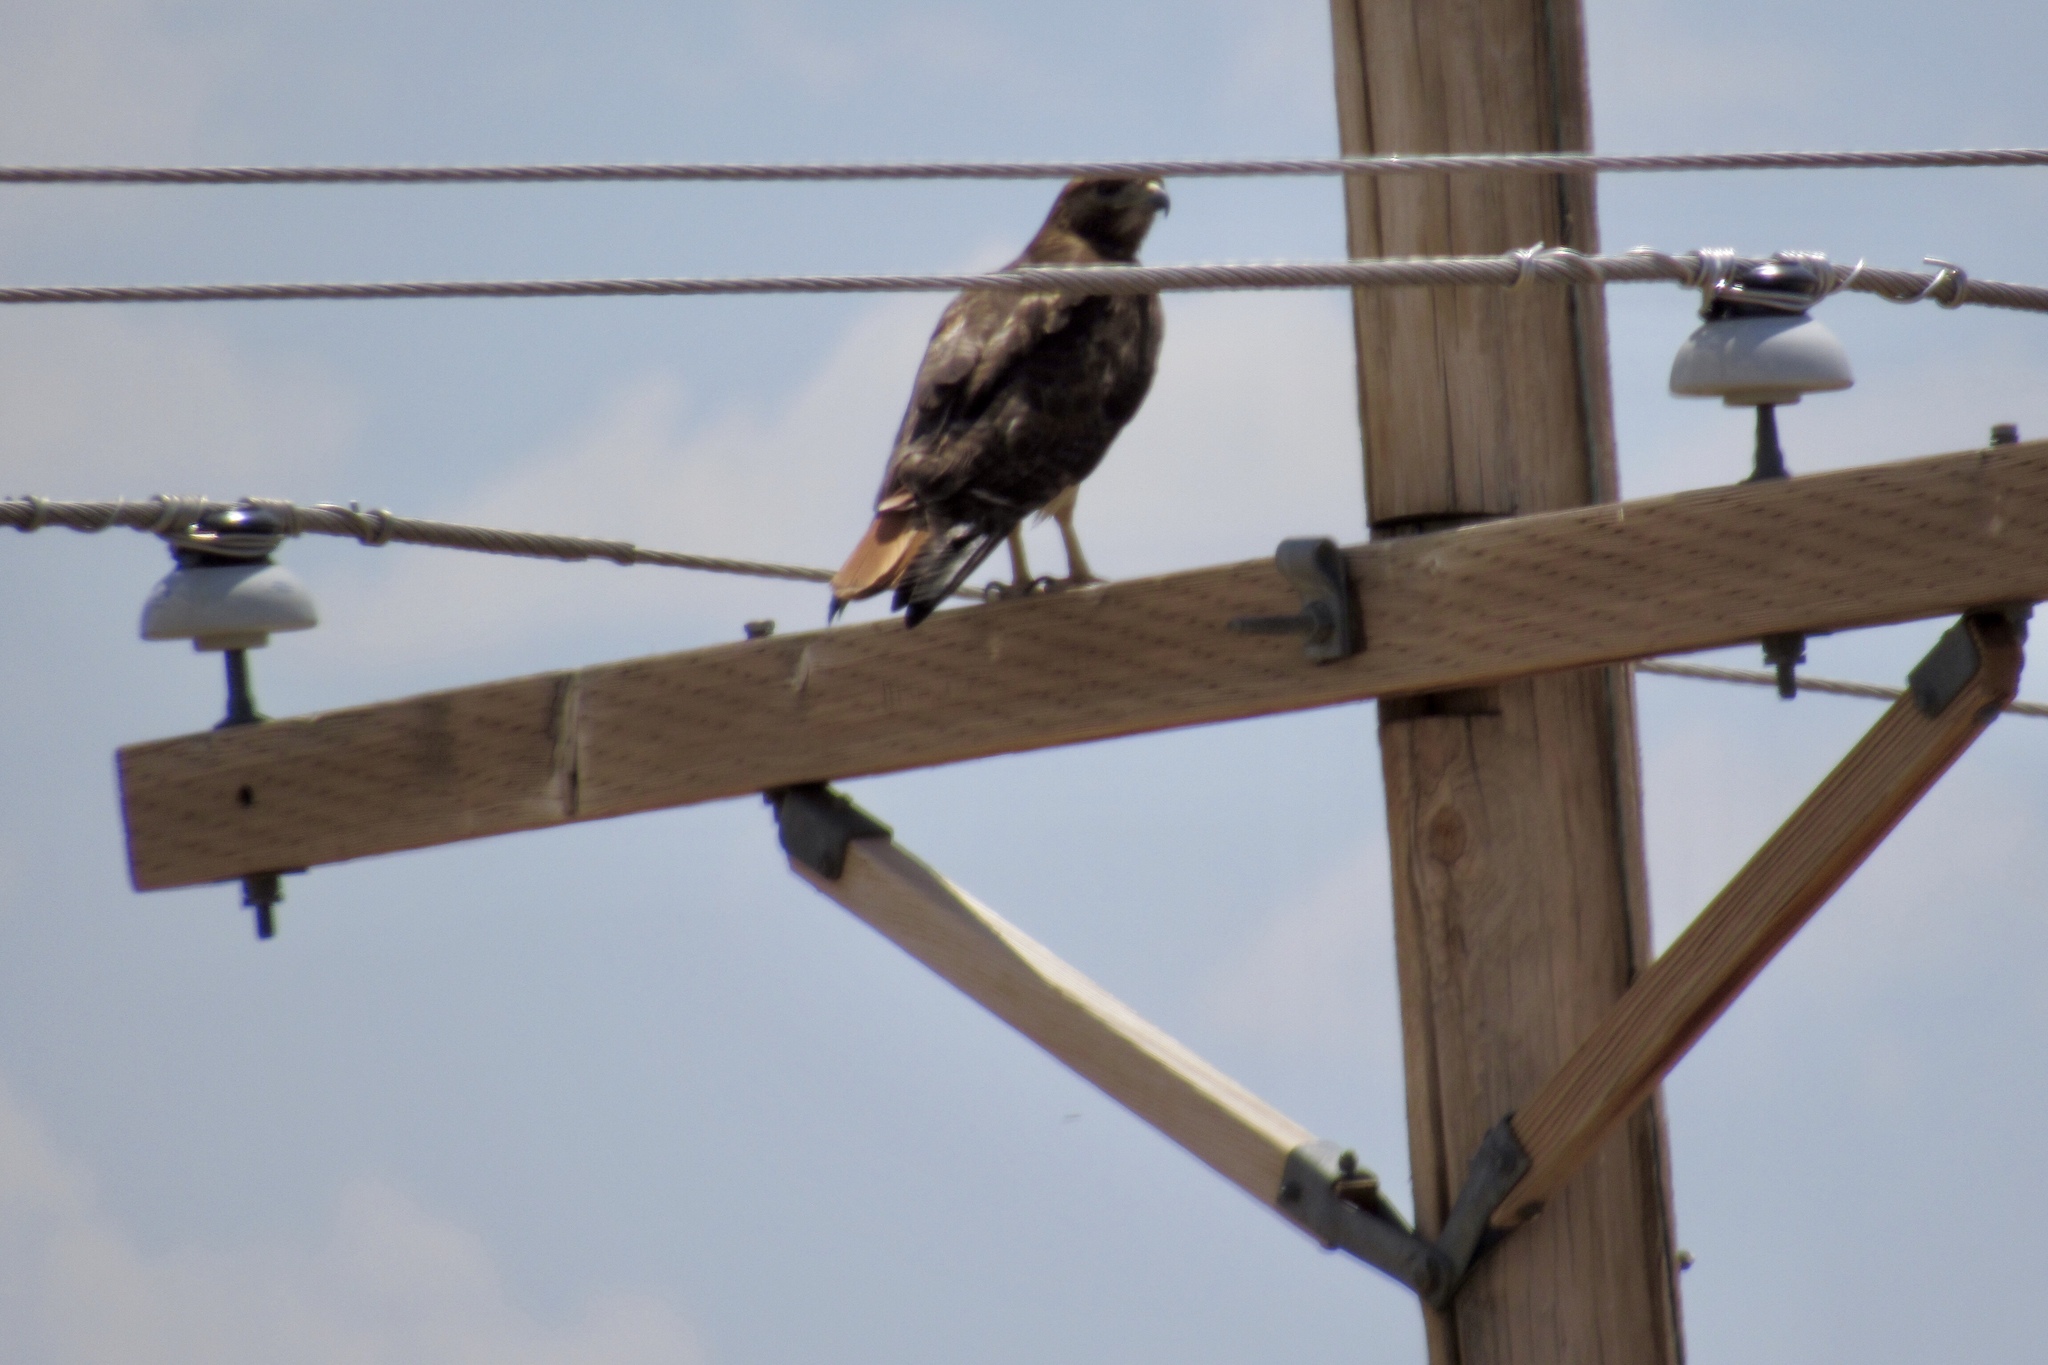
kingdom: Animalia
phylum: Chordata
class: Aves
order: Accipitriformes
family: Accipitridae
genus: Buteo
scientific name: Buteo jamaicensis
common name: Red-tailed hawk
